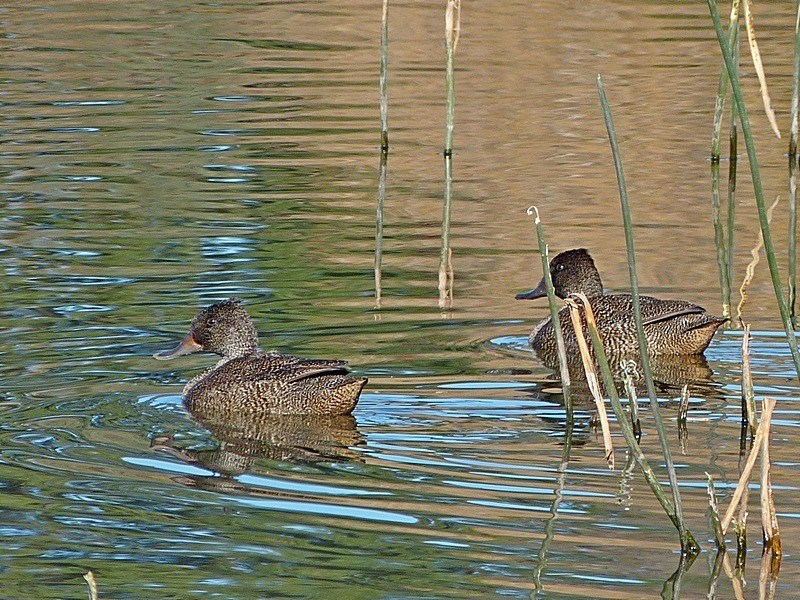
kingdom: Animalia
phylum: Chordata
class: Aves
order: Anseriformes
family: Anatidae
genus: Stictonetta
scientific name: Stictonetta naevosa
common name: Freckled duck
